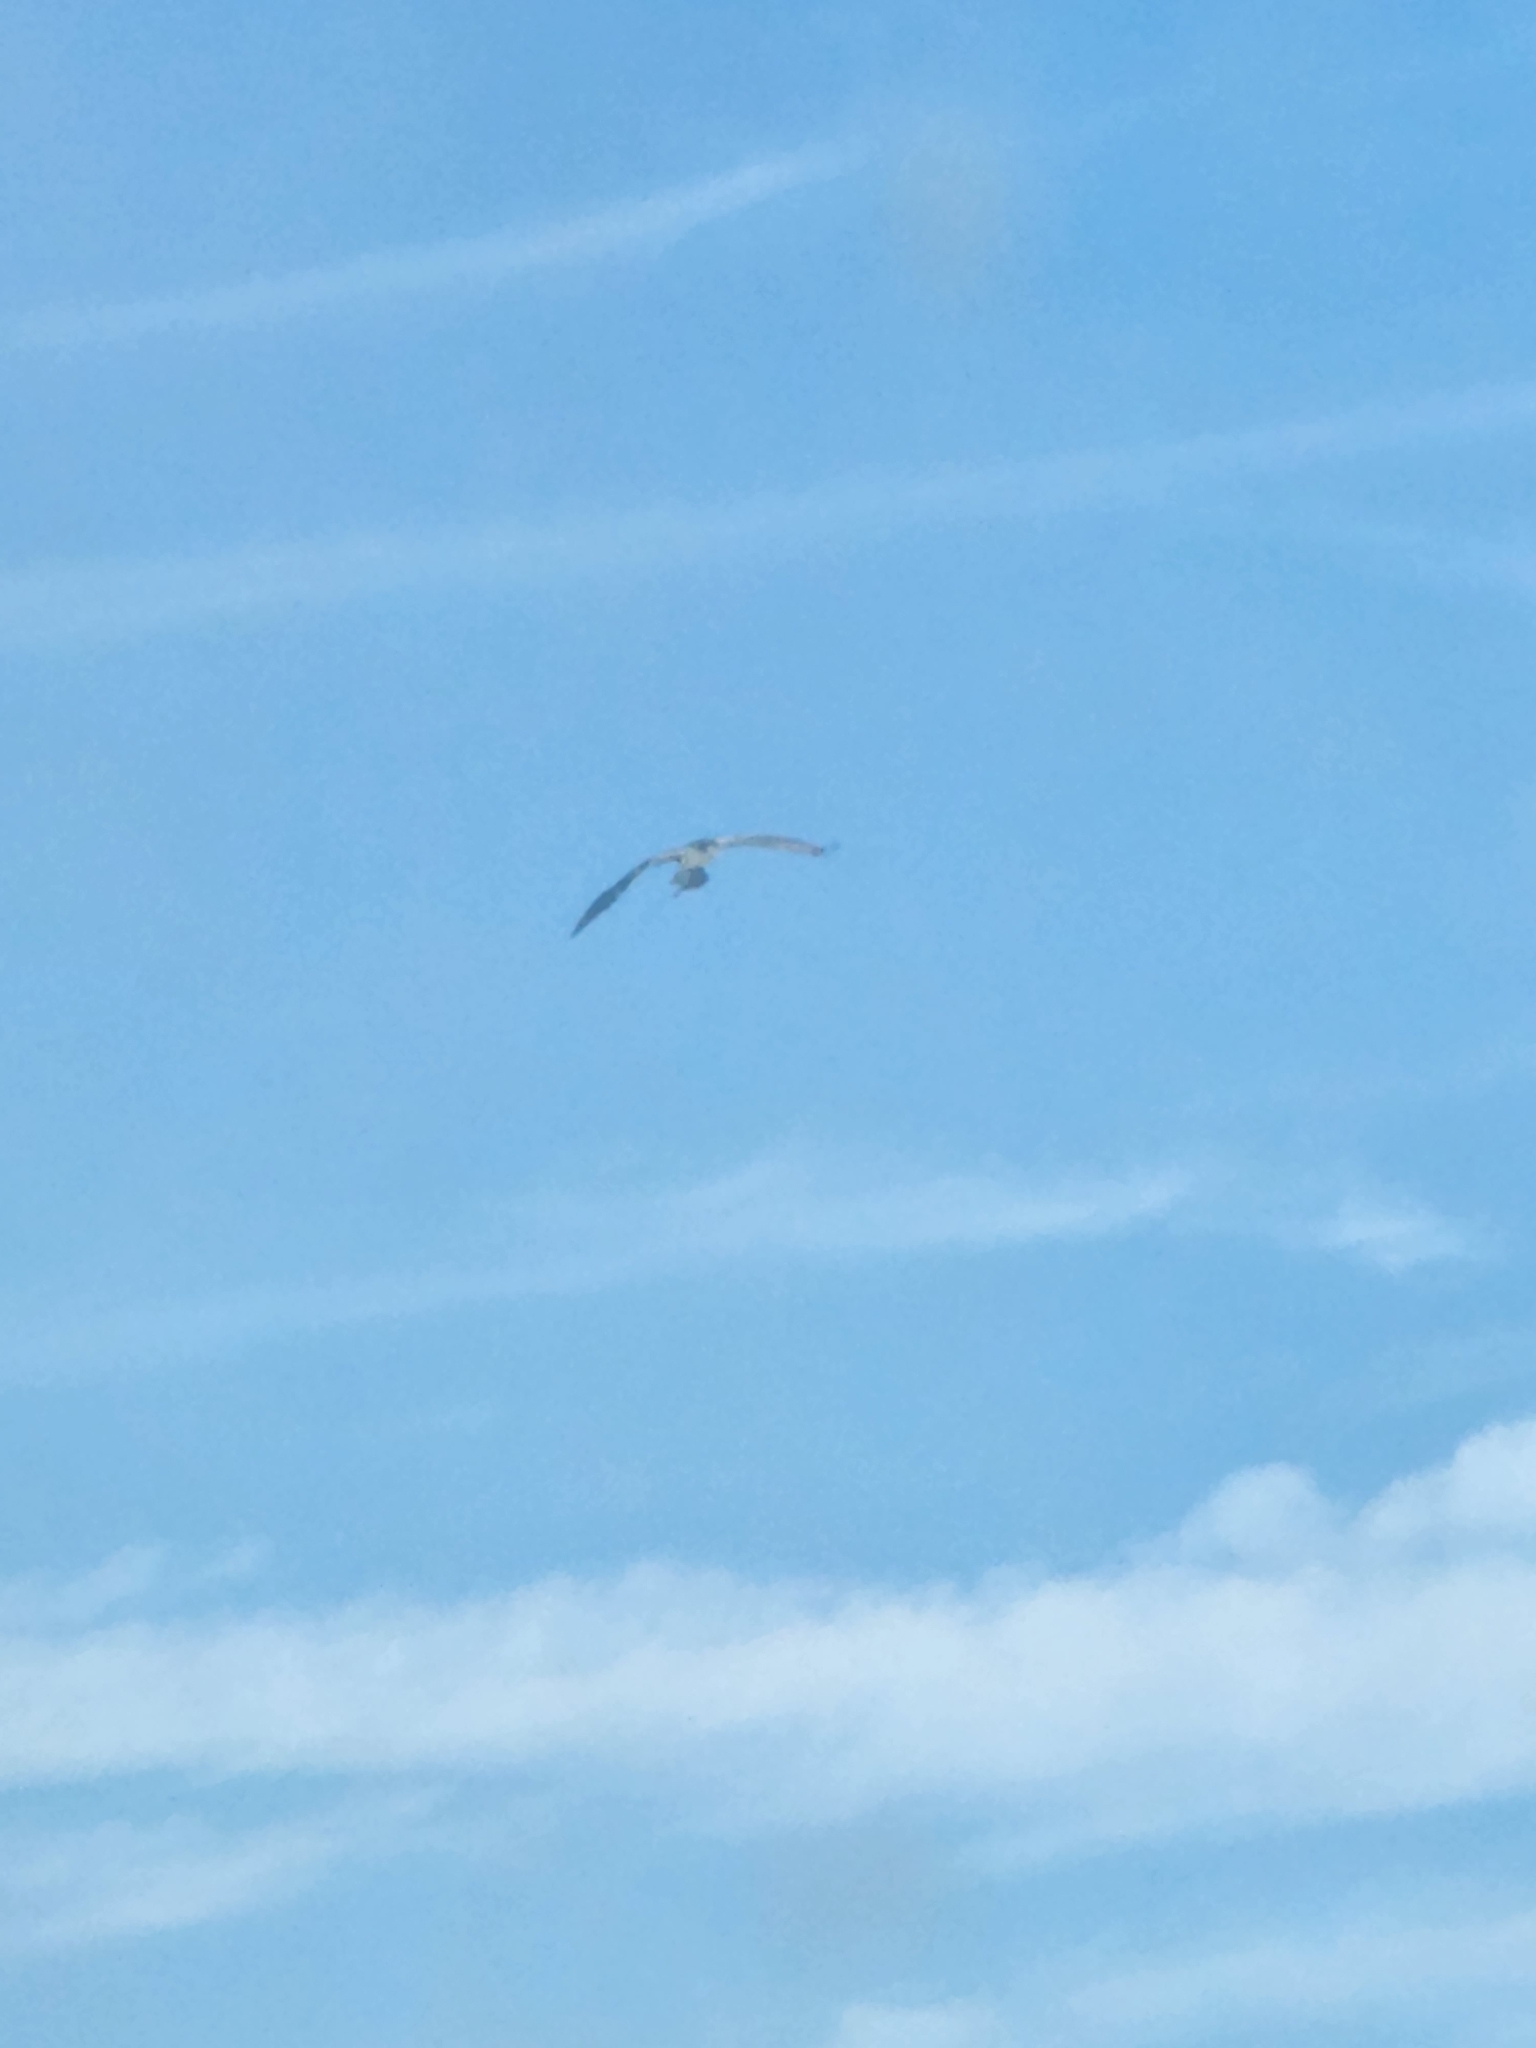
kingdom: Animalia
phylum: Chordata
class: Aves
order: Accipitriformes
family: Pandionidae
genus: Pandion
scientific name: Pandion haliaetus
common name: Osprey
